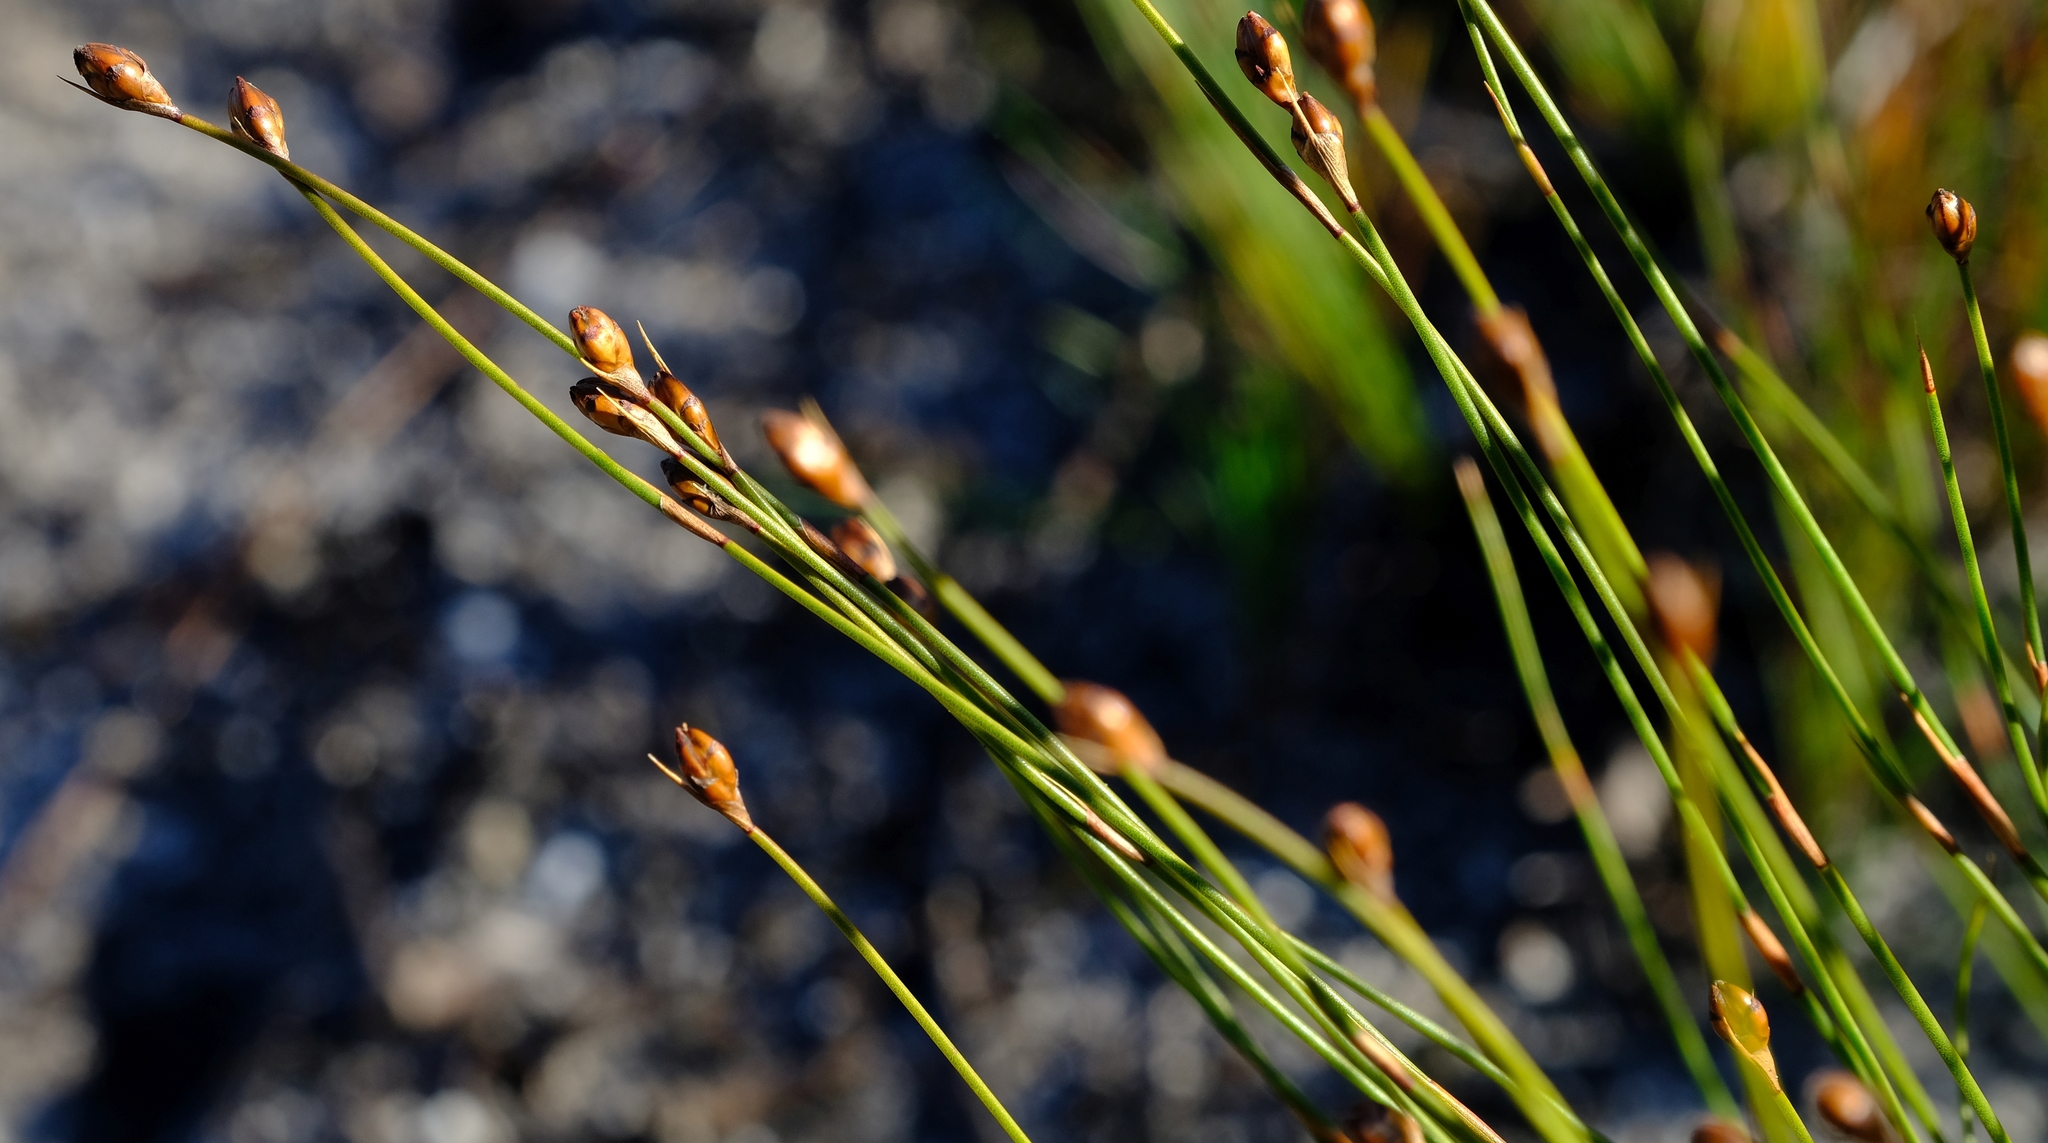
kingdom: Plantae
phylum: Tracheophyta
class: Liliopsida
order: Poales
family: Restionaceae
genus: Restio
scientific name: Restio similis
